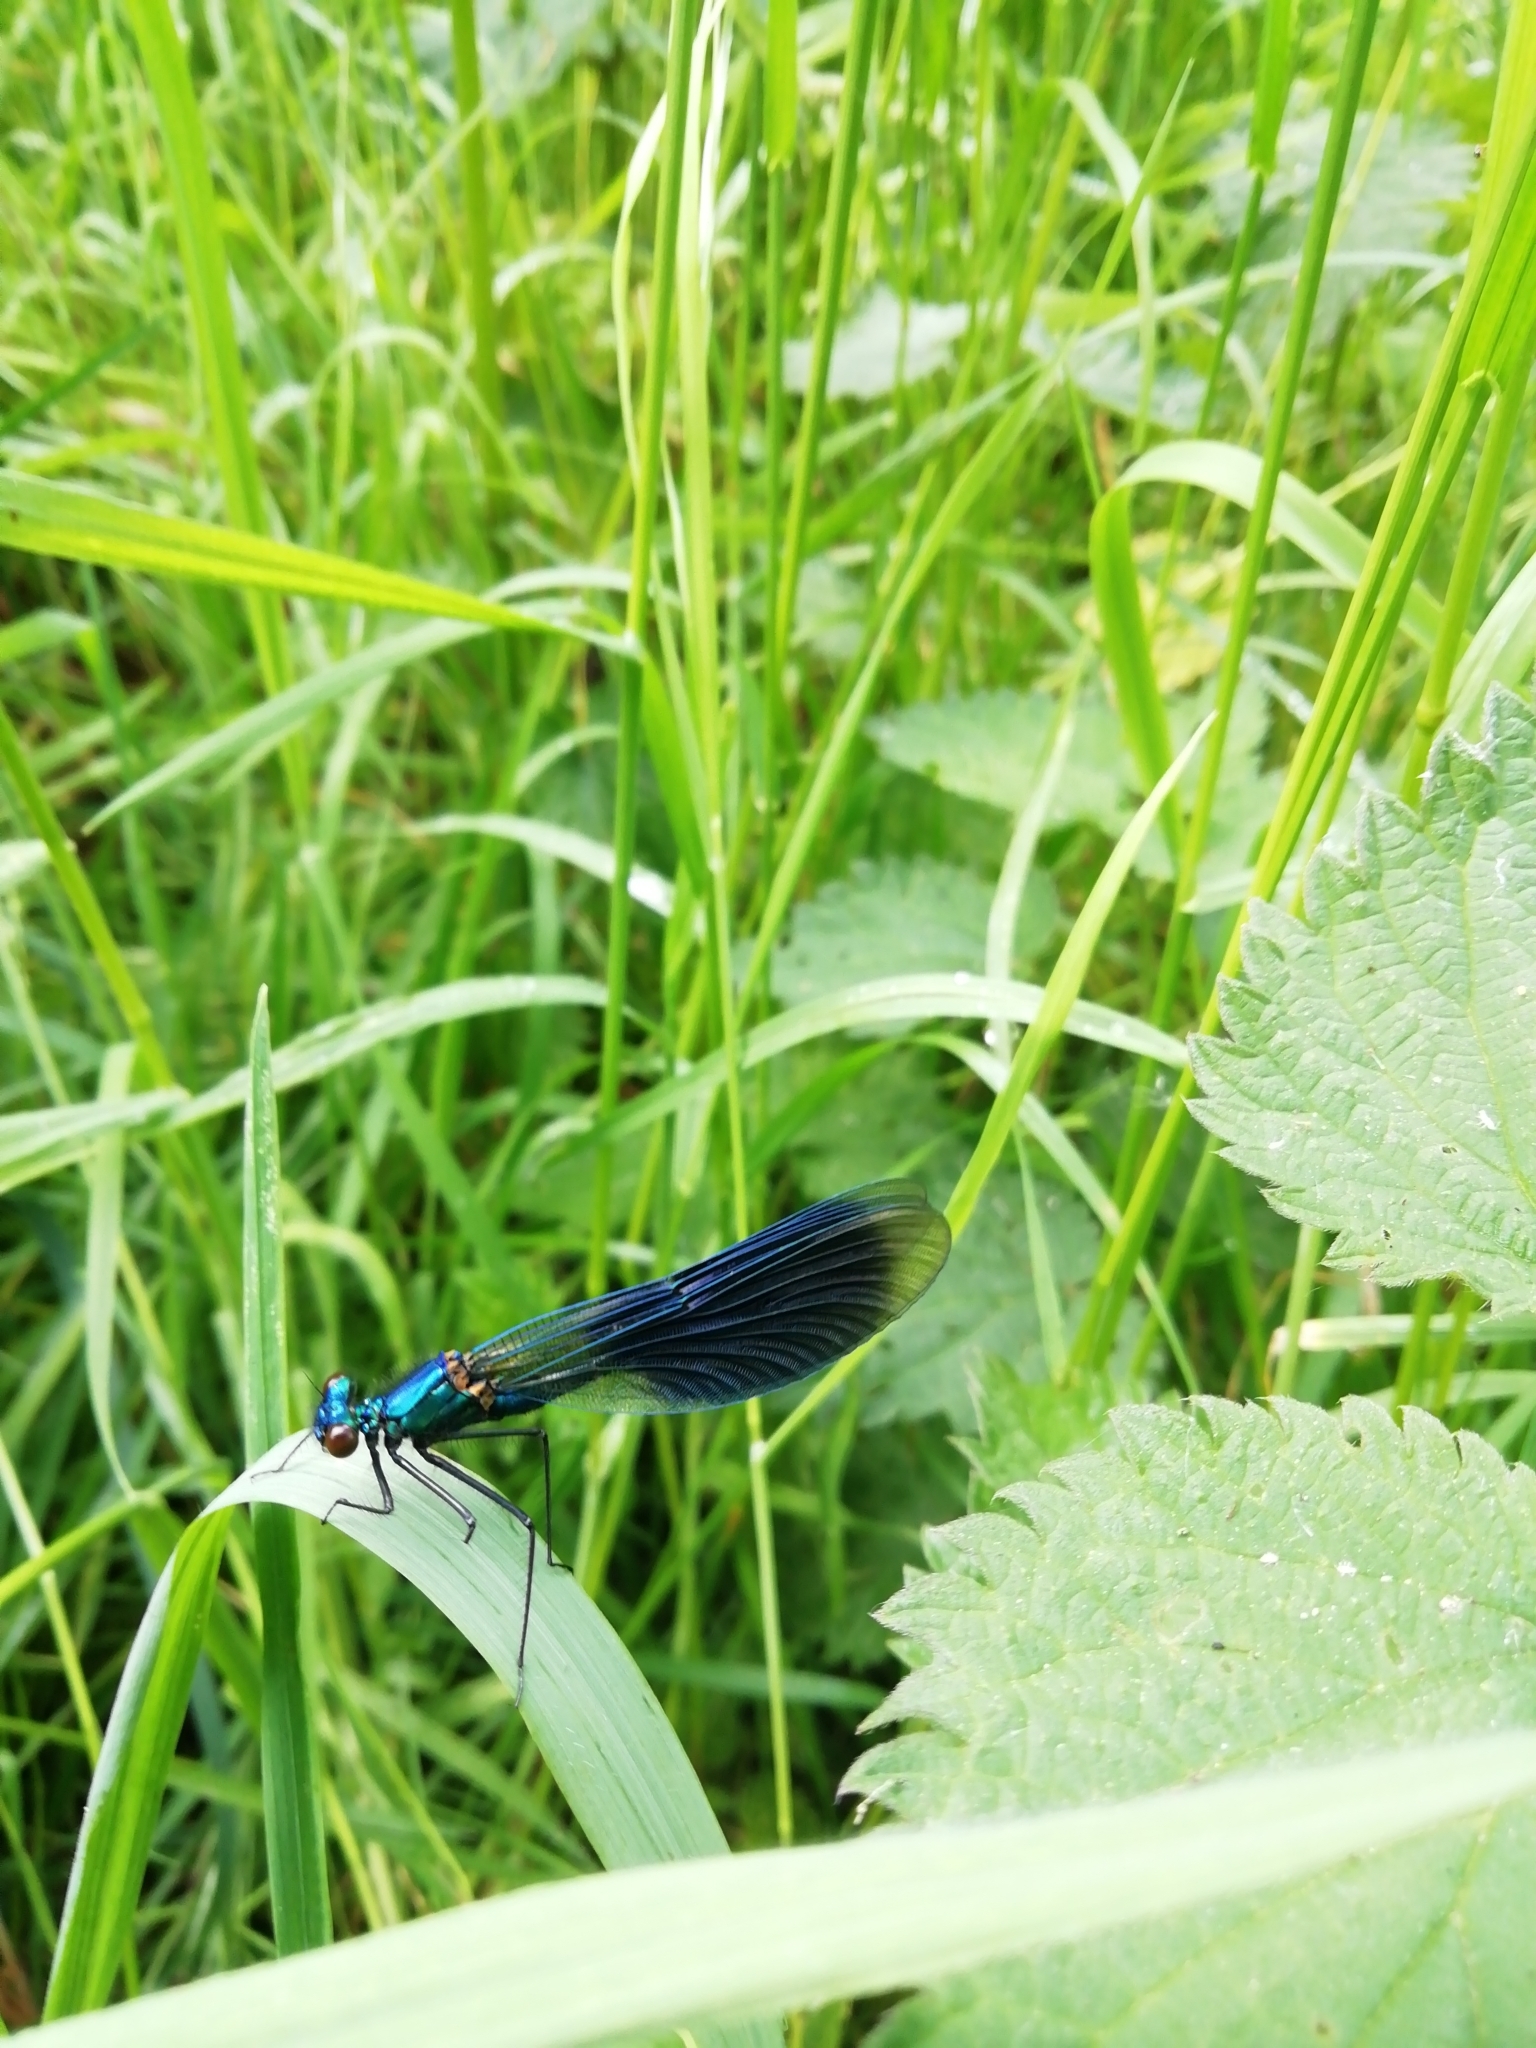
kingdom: Animalia
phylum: Arthropoda
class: Insecta
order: Odonata
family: Calopterygidae
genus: Calopteryx
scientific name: Calopteryx splendens
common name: Banded demoiselle
